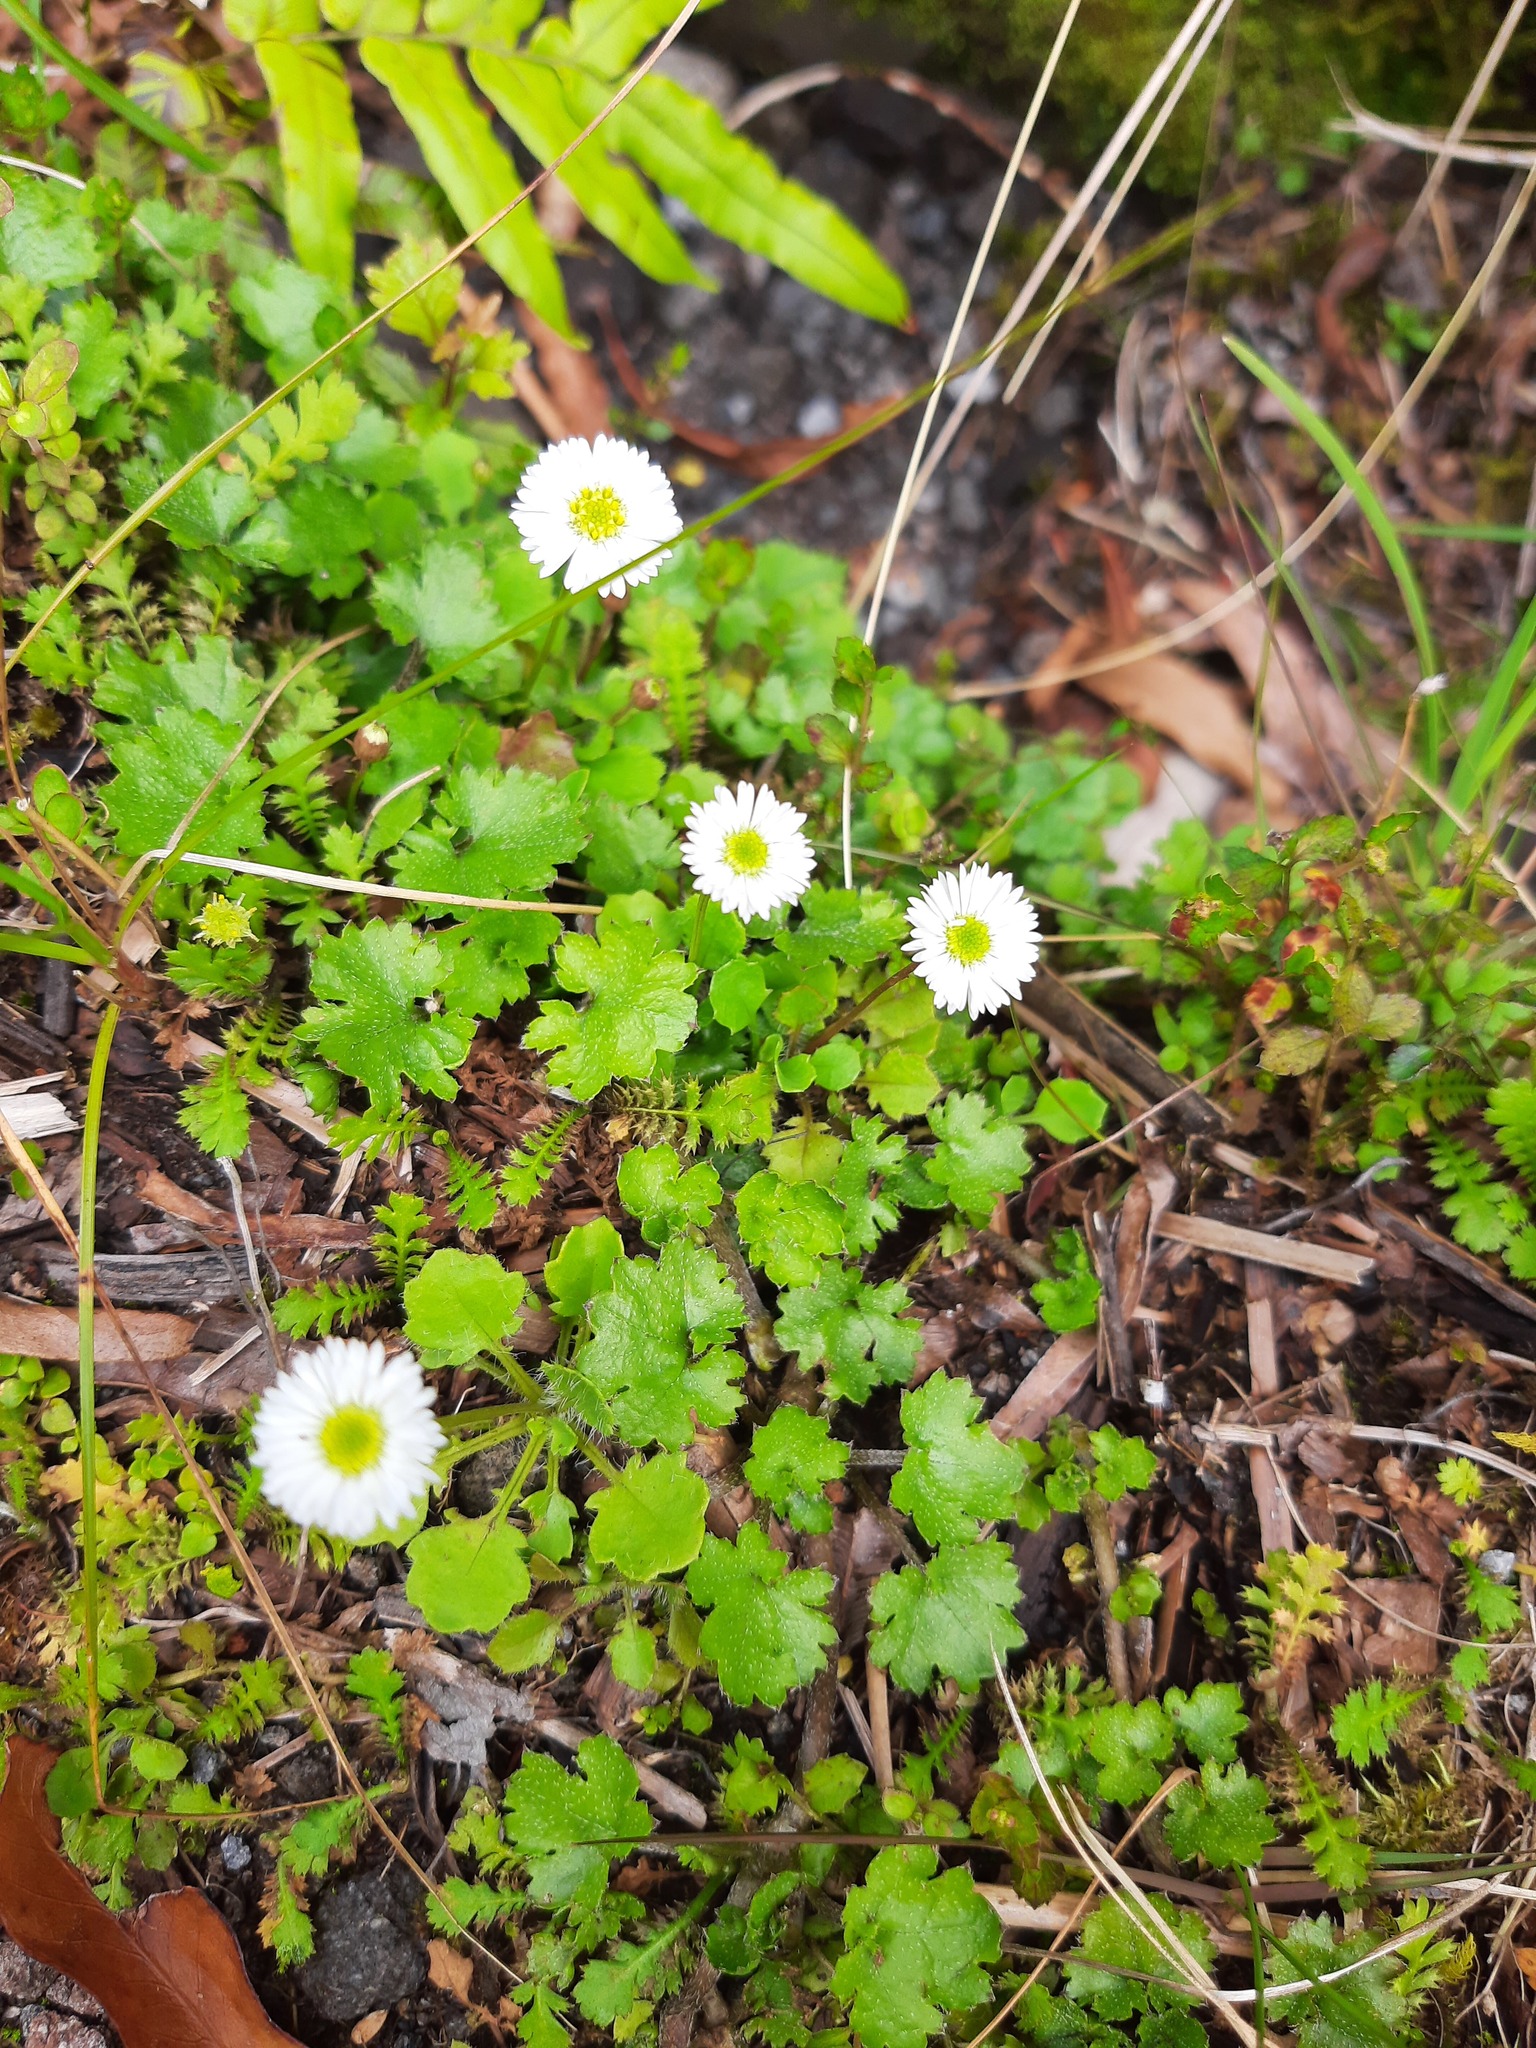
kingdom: Plantae
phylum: Tracheophyta
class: Magnoliopsida
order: Asterales
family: Asteraceae
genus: Lagenophora
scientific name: Lagenophora pumila
